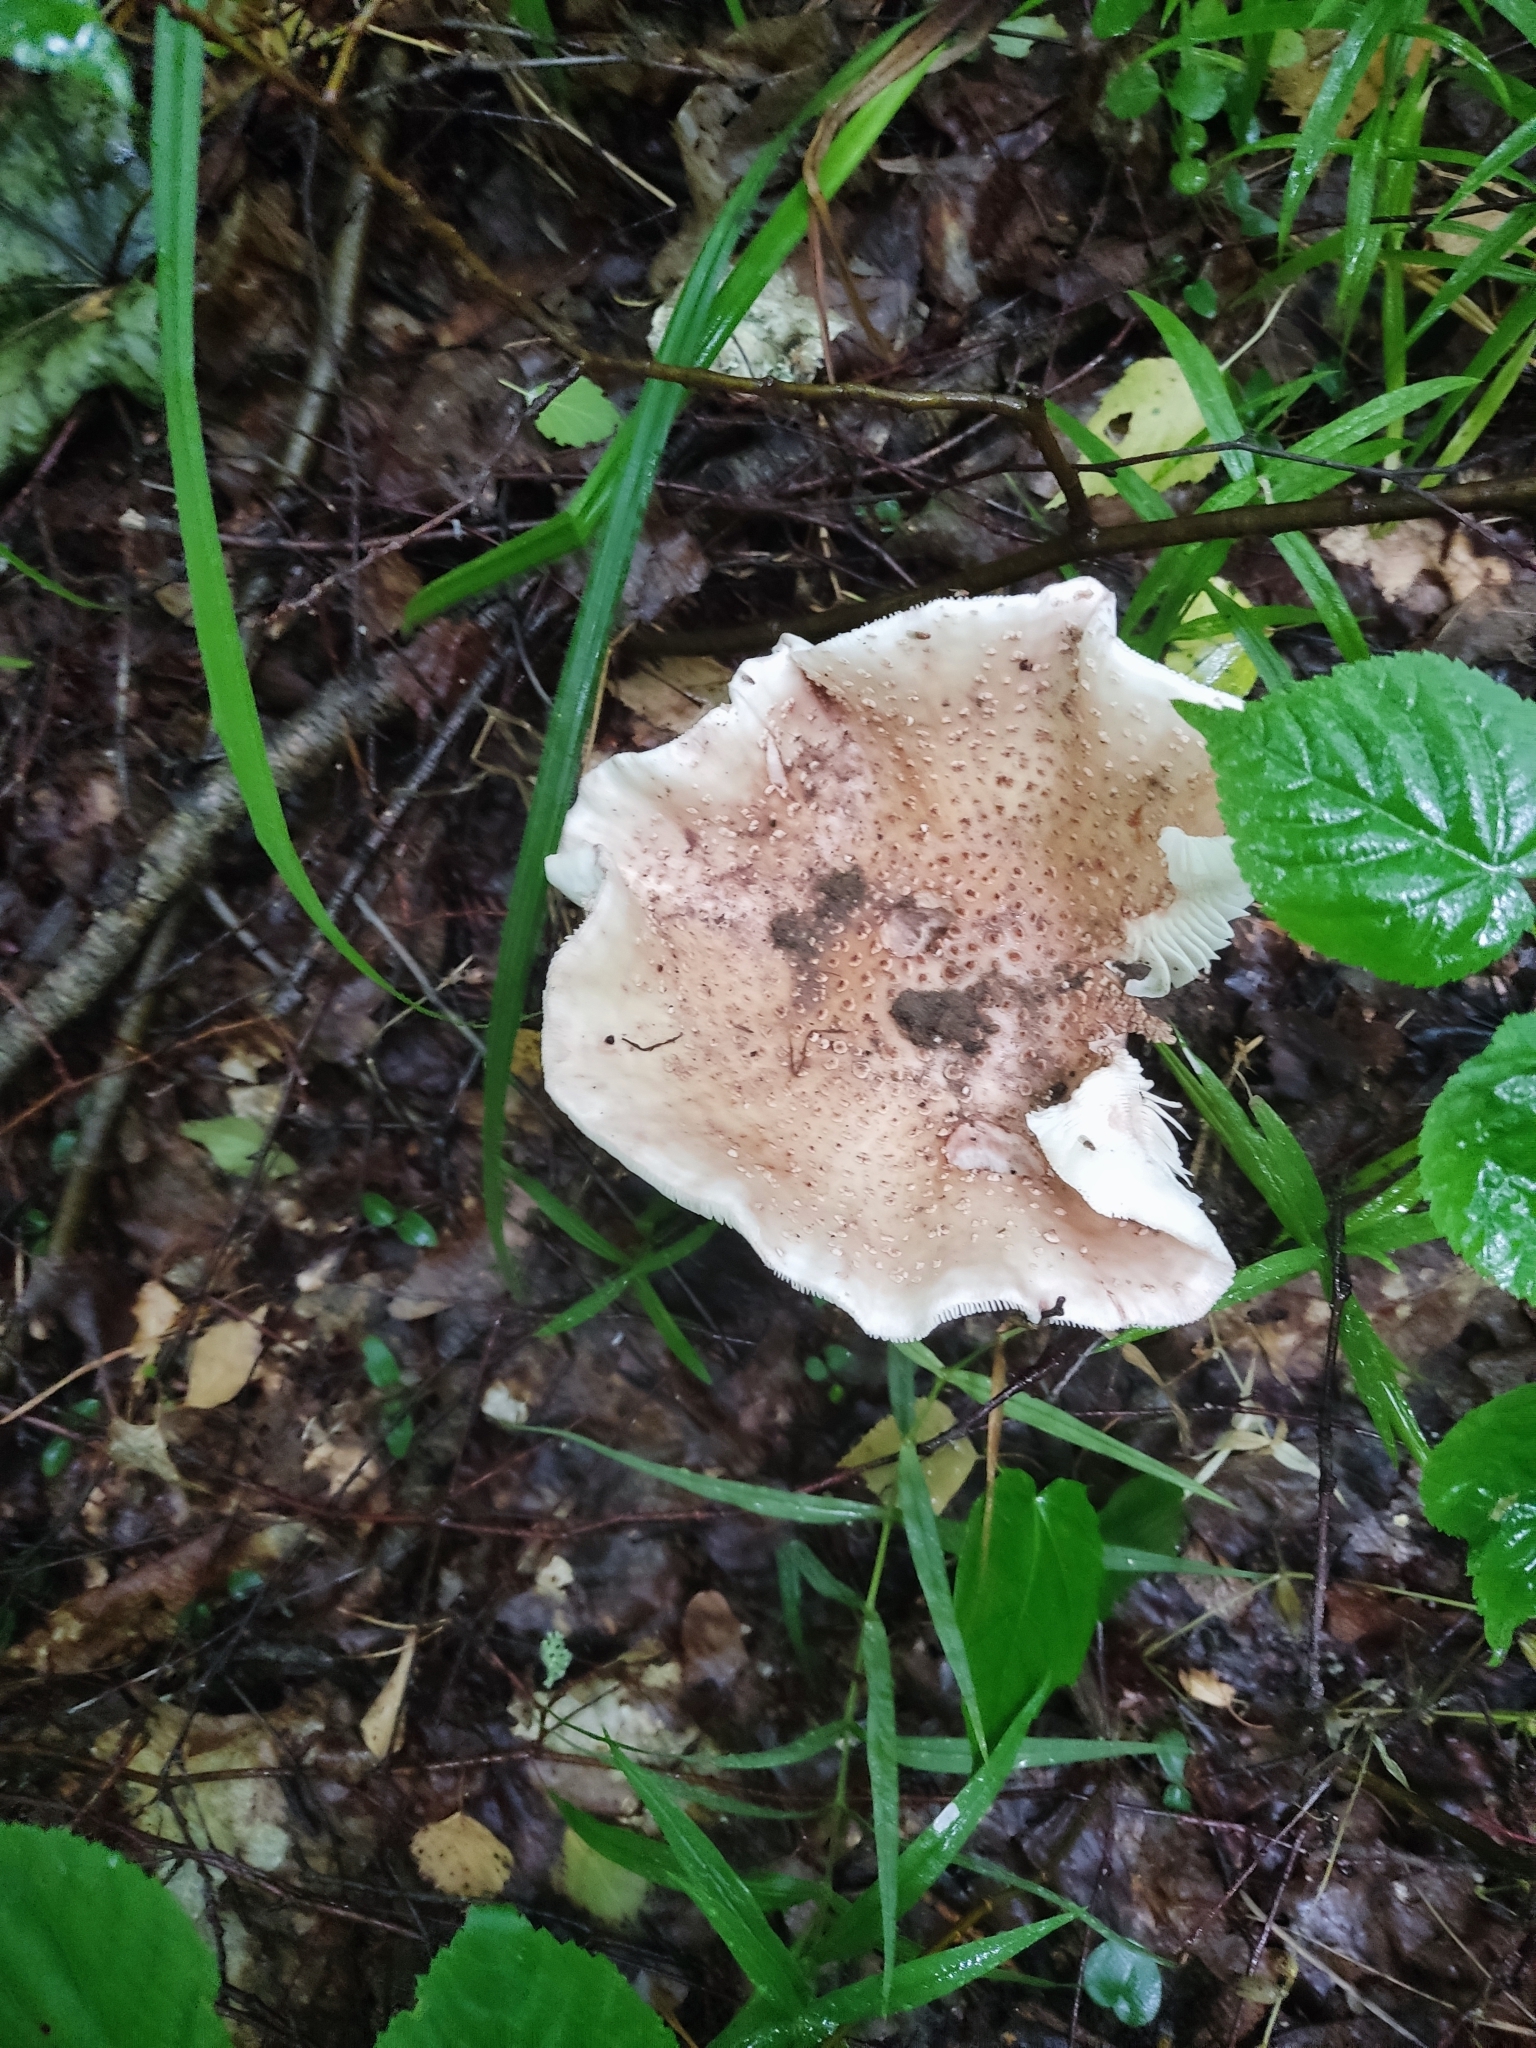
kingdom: Fungi
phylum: Basidiomycota
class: Agaricomycetes
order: Agaricales
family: Amanitaceae
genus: Amanita
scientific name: Amanita rubescens
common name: Blusher
